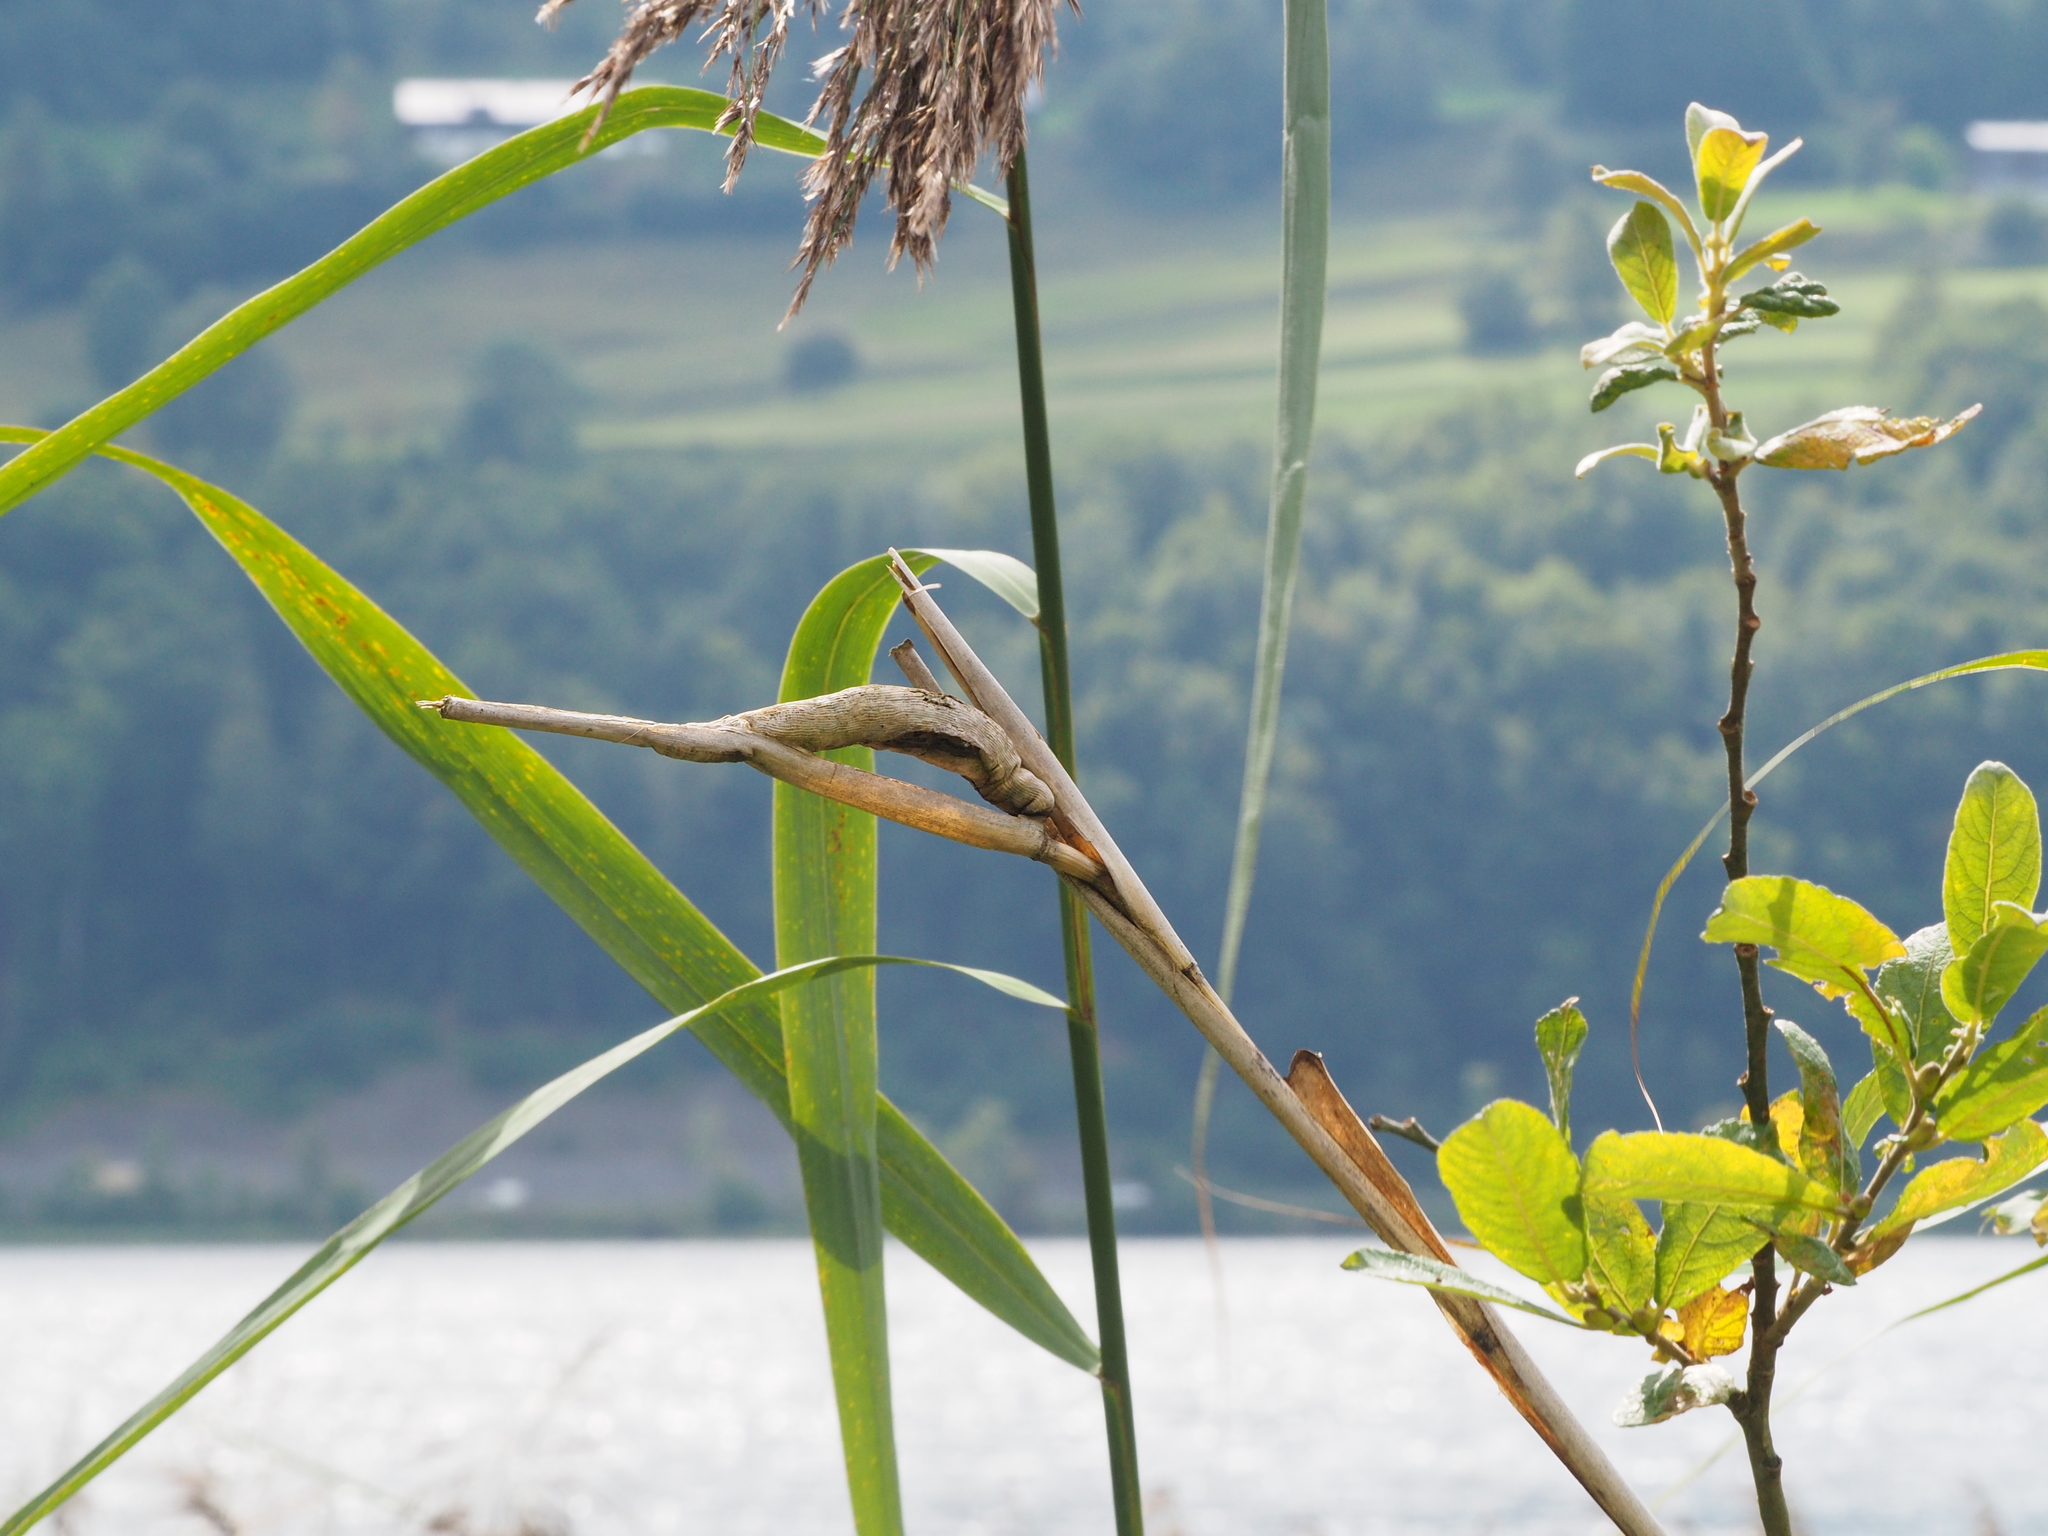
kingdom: Animalia
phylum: Arthropoda
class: Arachnida
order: Trombidiformes
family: Tarsonemidae
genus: Steneotarsonemus
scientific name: Steneotarsonemus phragmitidis
